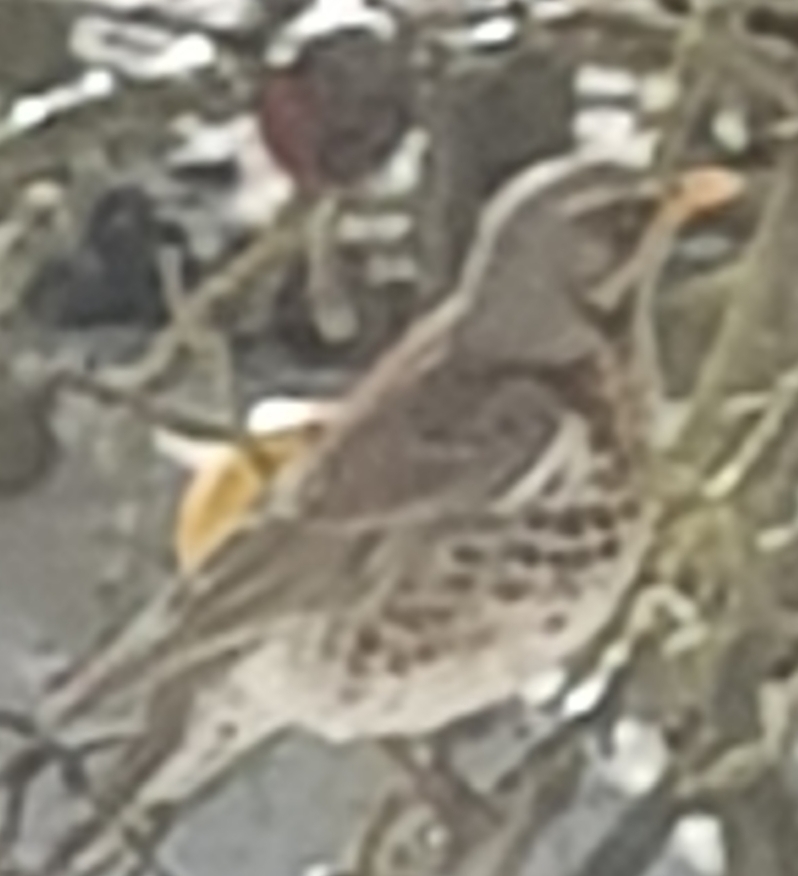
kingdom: Animalia
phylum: Chordata
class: Aves
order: Passeriformes
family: Turdidae
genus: Turdus
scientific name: Turdus pilaris
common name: Fieldfare
